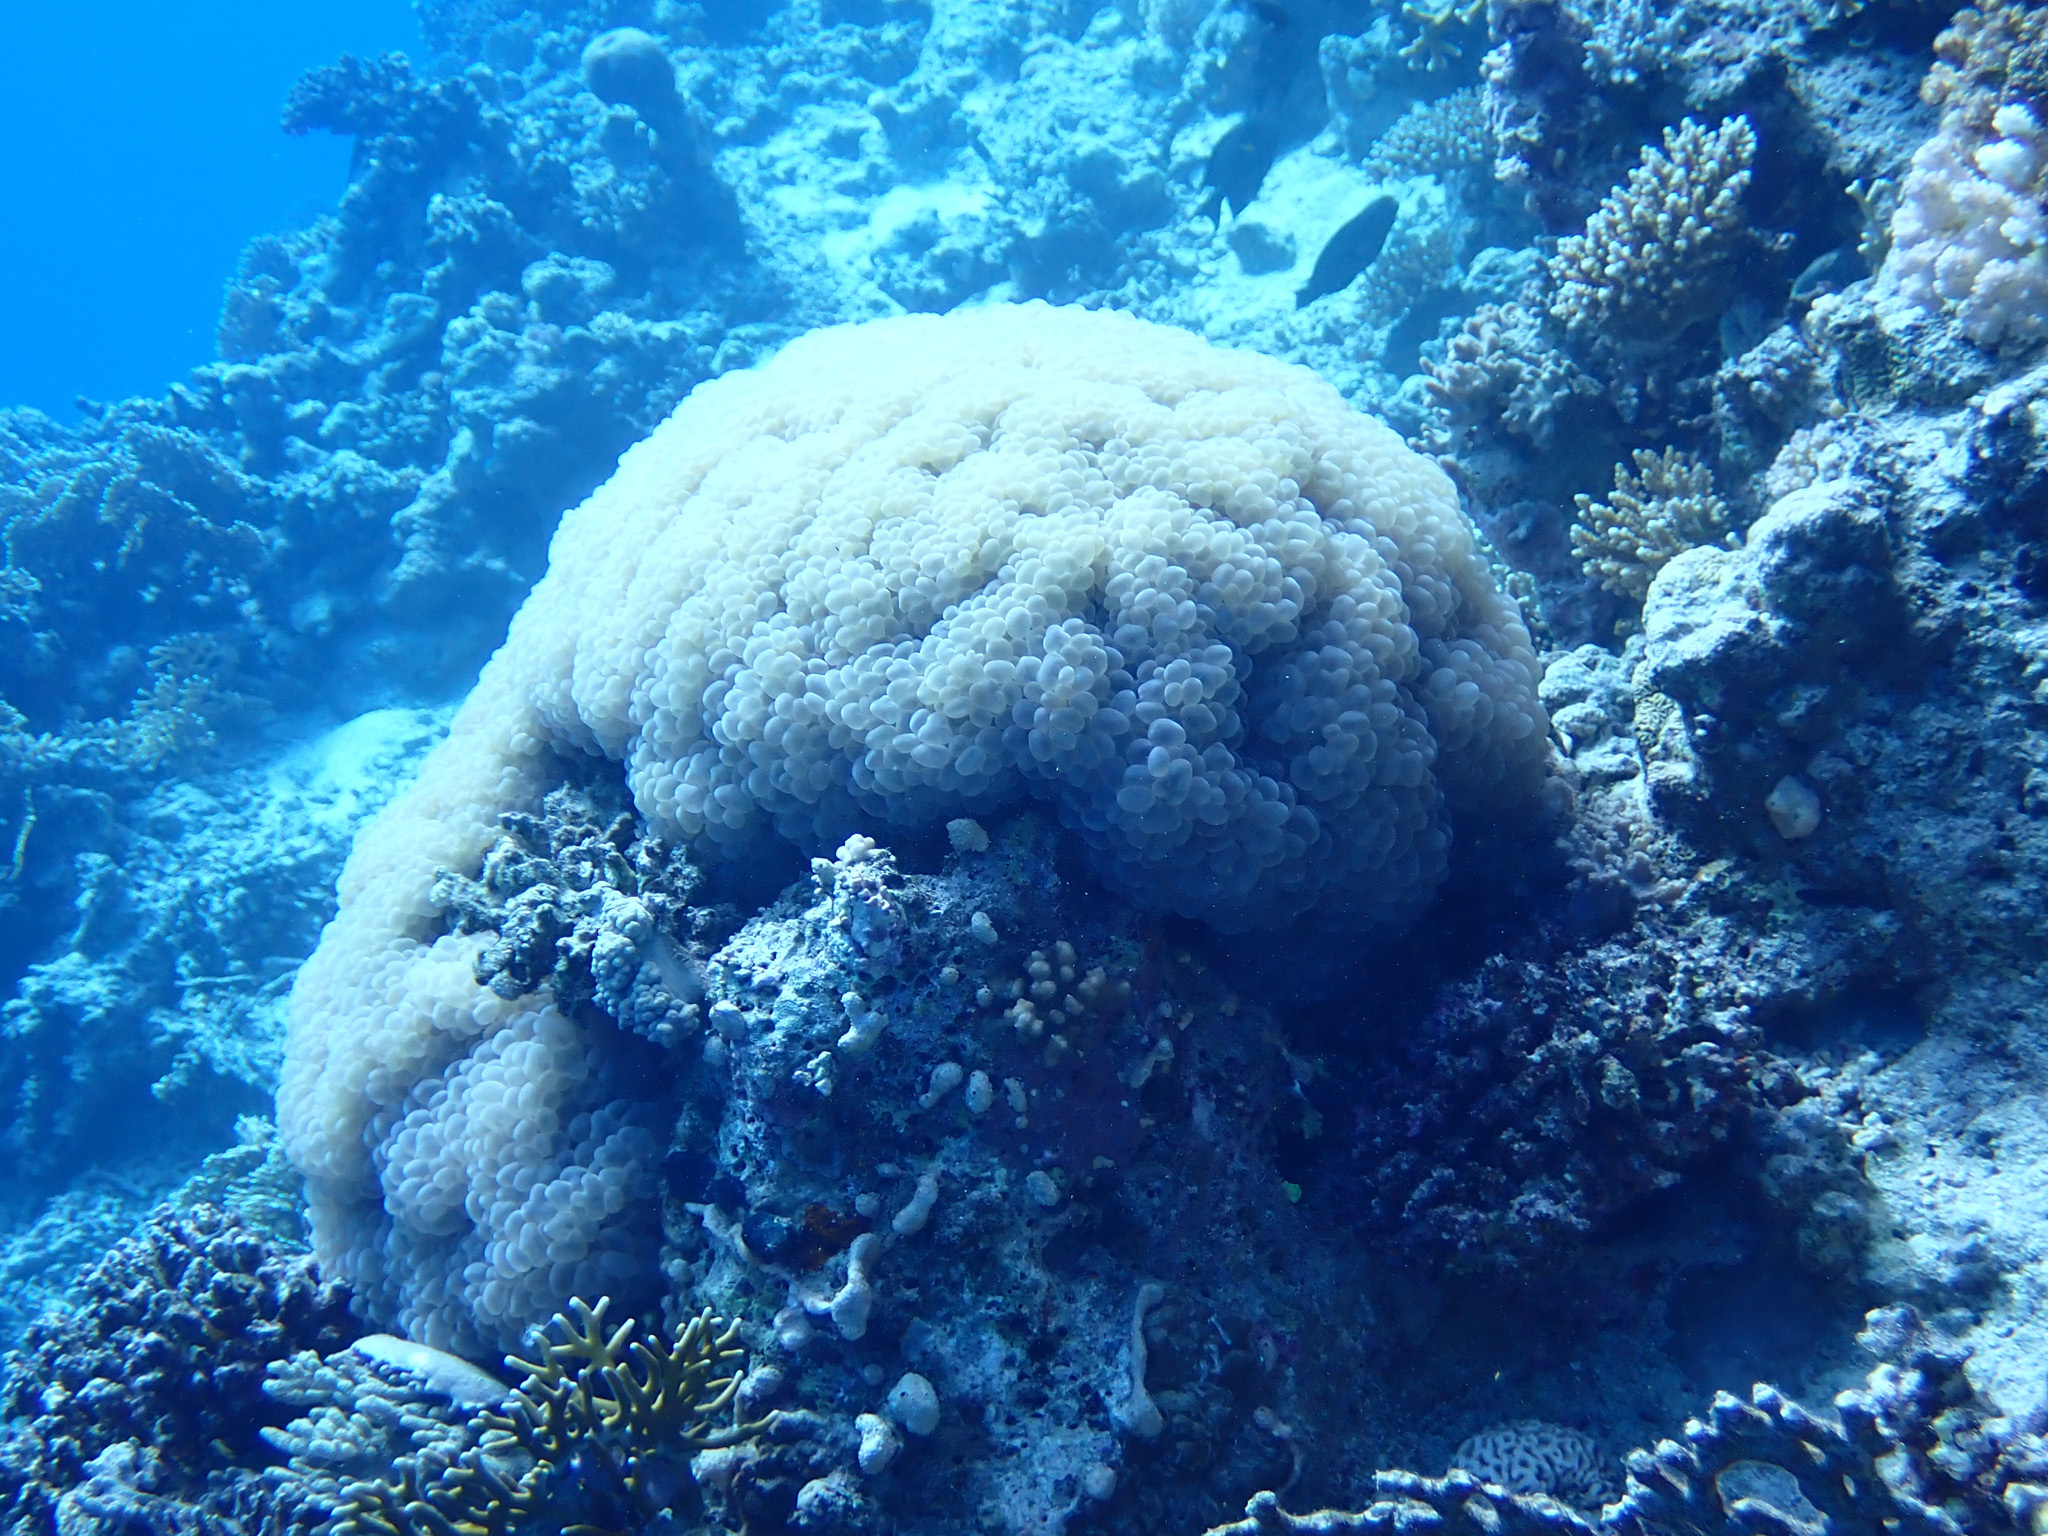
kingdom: Animalia
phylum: Cnidaria
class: Anthozoa
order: Scleractinia
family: Plerogyridae
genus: Plerogyra
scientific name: Plerogyra sinuosa
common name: Bubble coral
